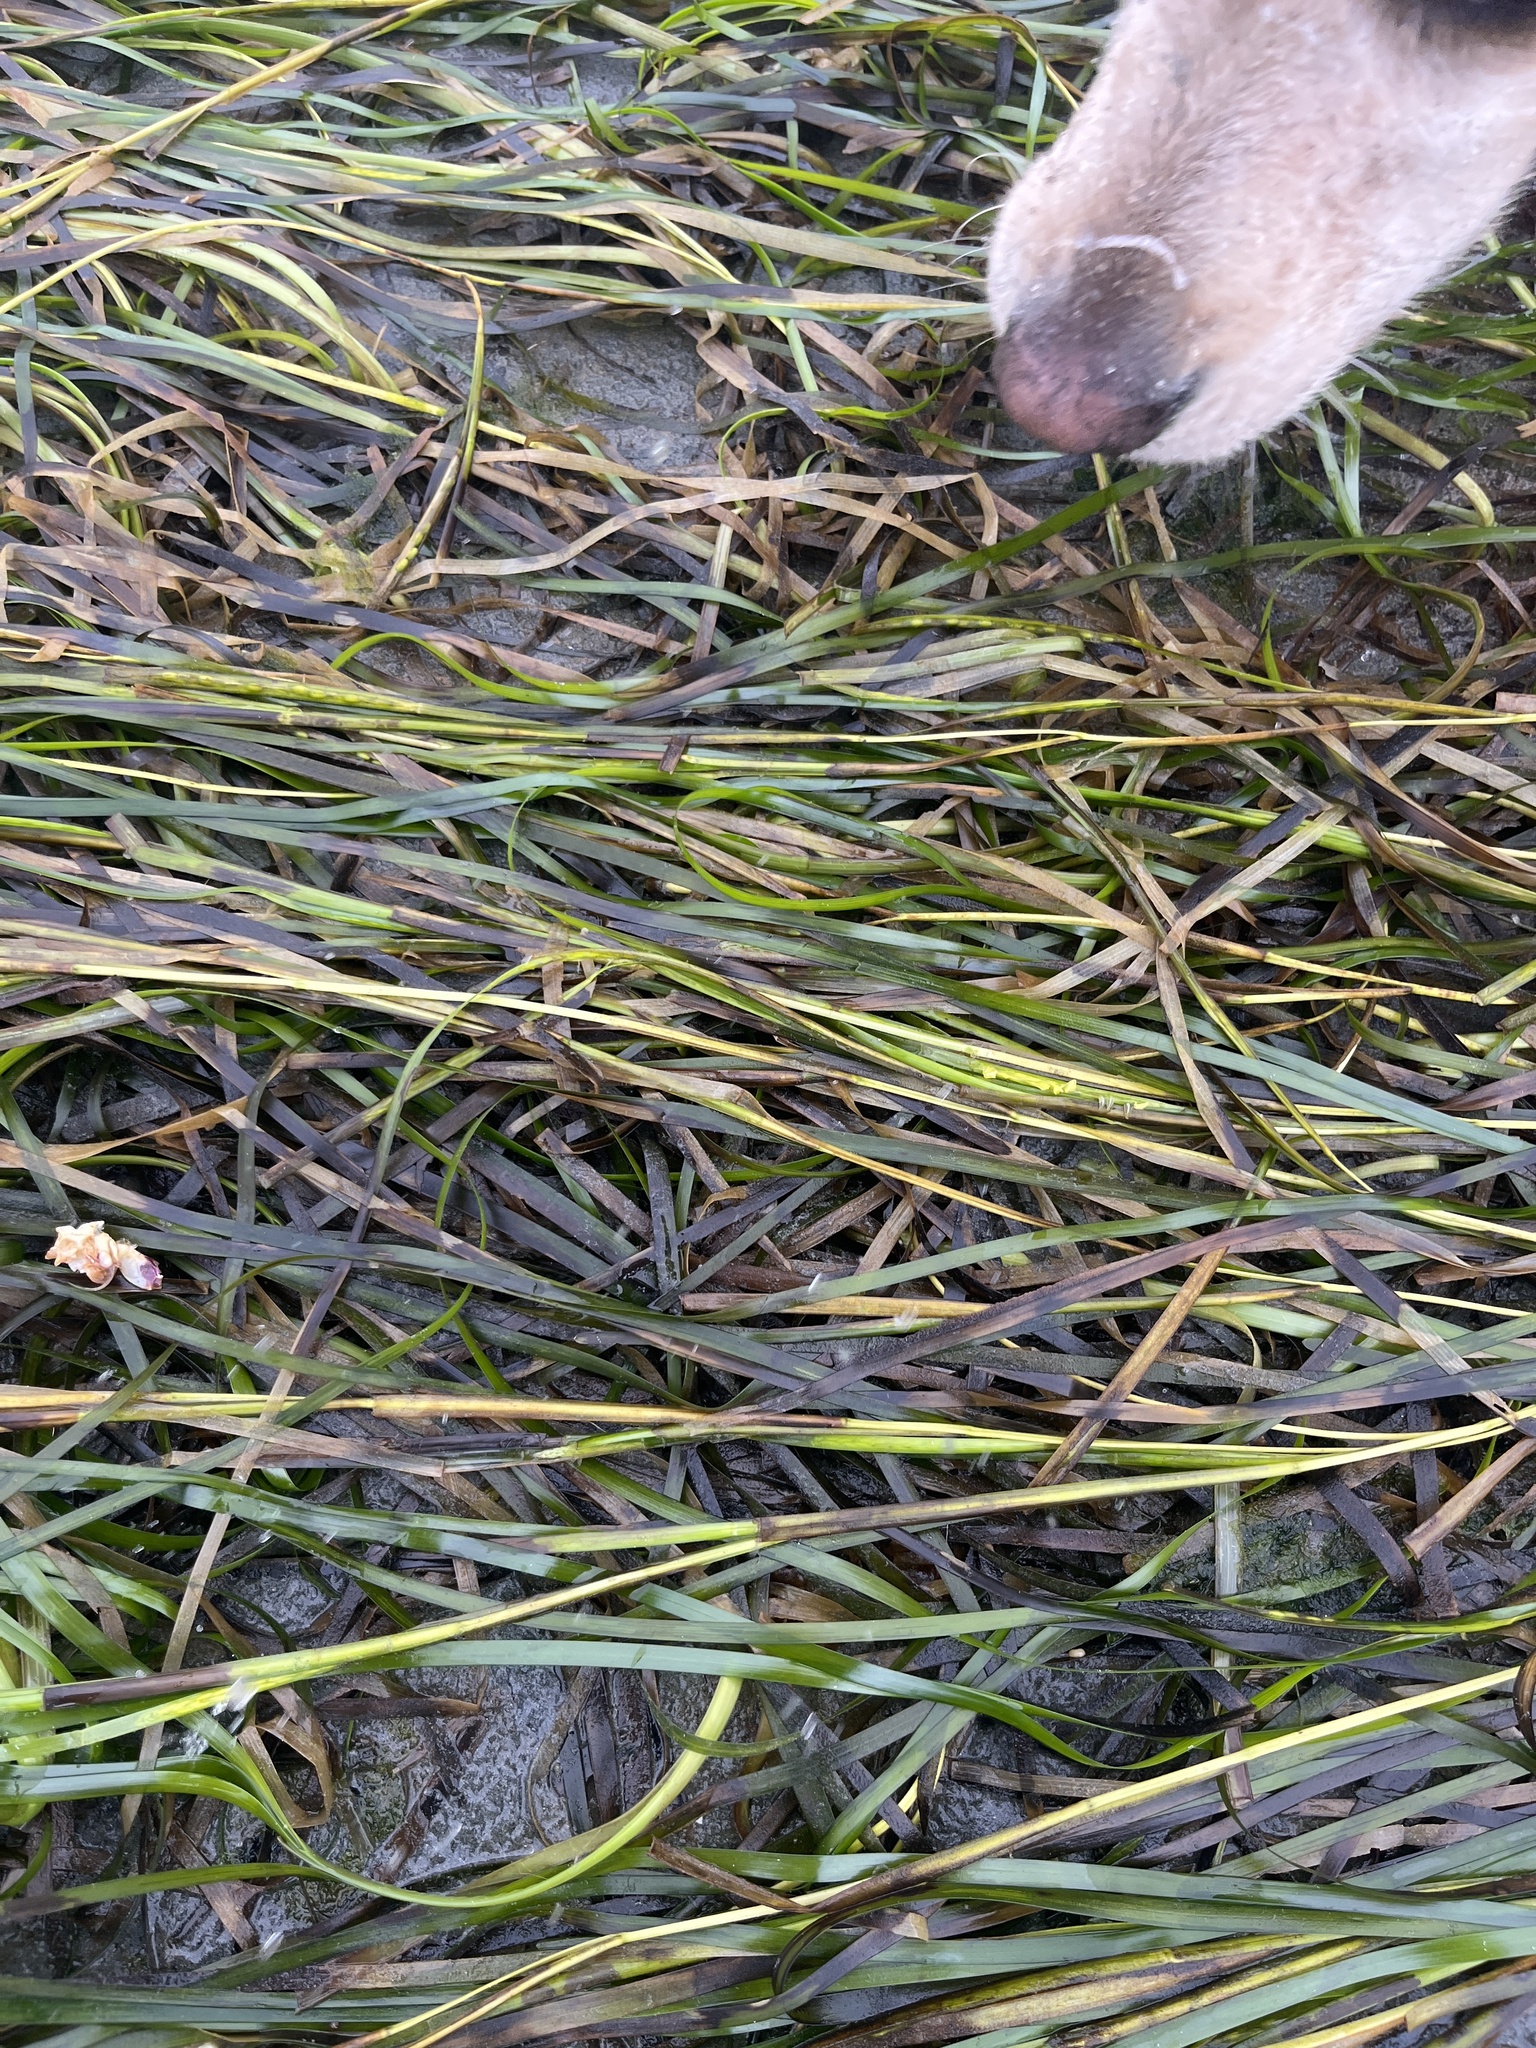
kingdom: Plantae
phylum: Tracheophyta
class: Liliopsida
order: Alismatales
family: Zosteraceae
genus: Zostera
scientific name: Zostera marina
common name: Eelgrass
